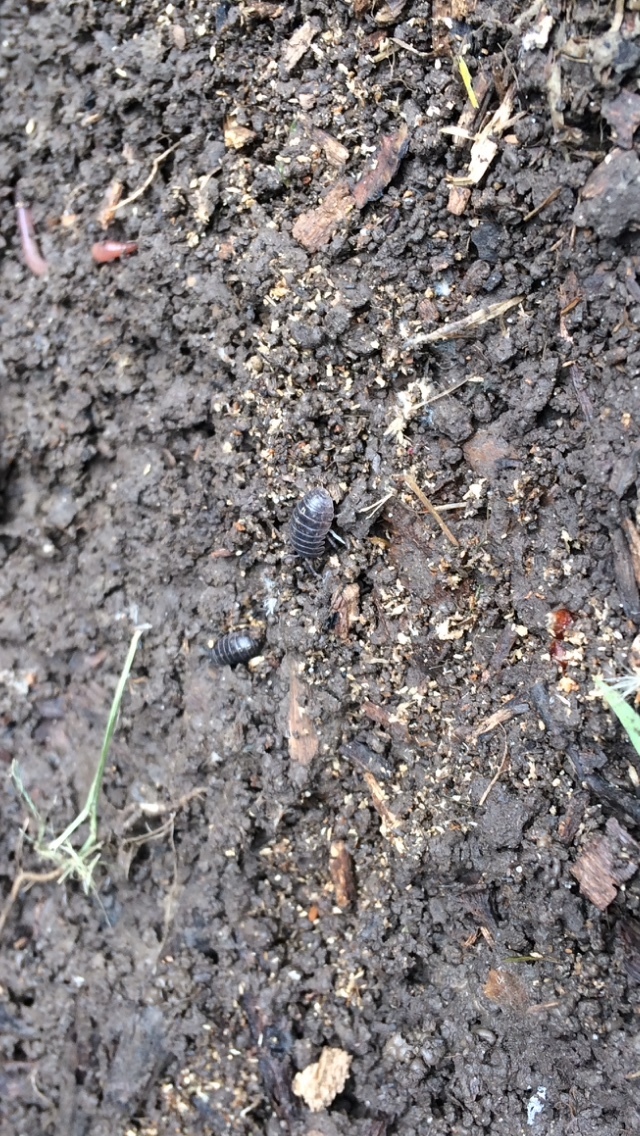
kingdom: Animalia
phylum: Arthropoda
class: Malacostraca
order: Isopoda
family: Armadillidiidae
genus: Armadillidium
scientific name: Armadillidium vulgare
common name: Common pill woodlouse
